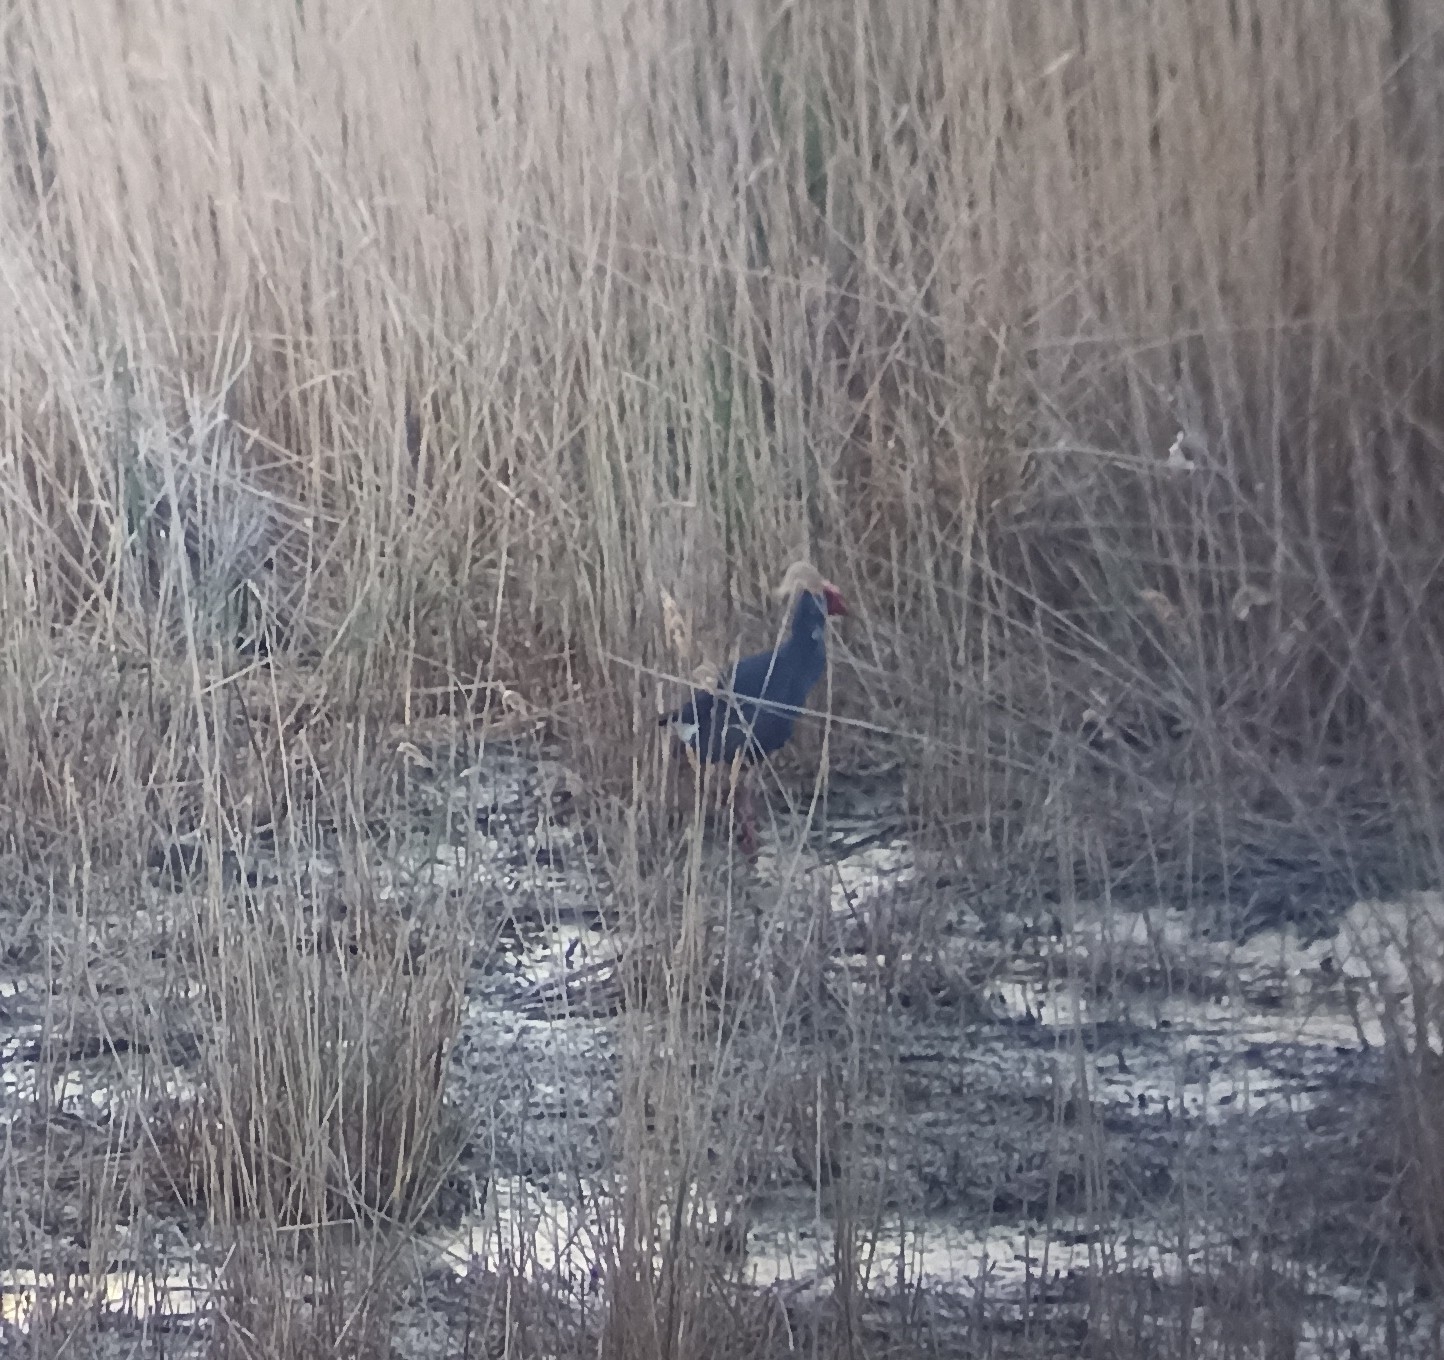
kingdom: Animalia
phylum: Chordata
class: Aves
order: Gruiformes
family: Rallidae
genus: Porphyrio
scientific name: Porphyrio porphyrio
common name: Purple swamphen
